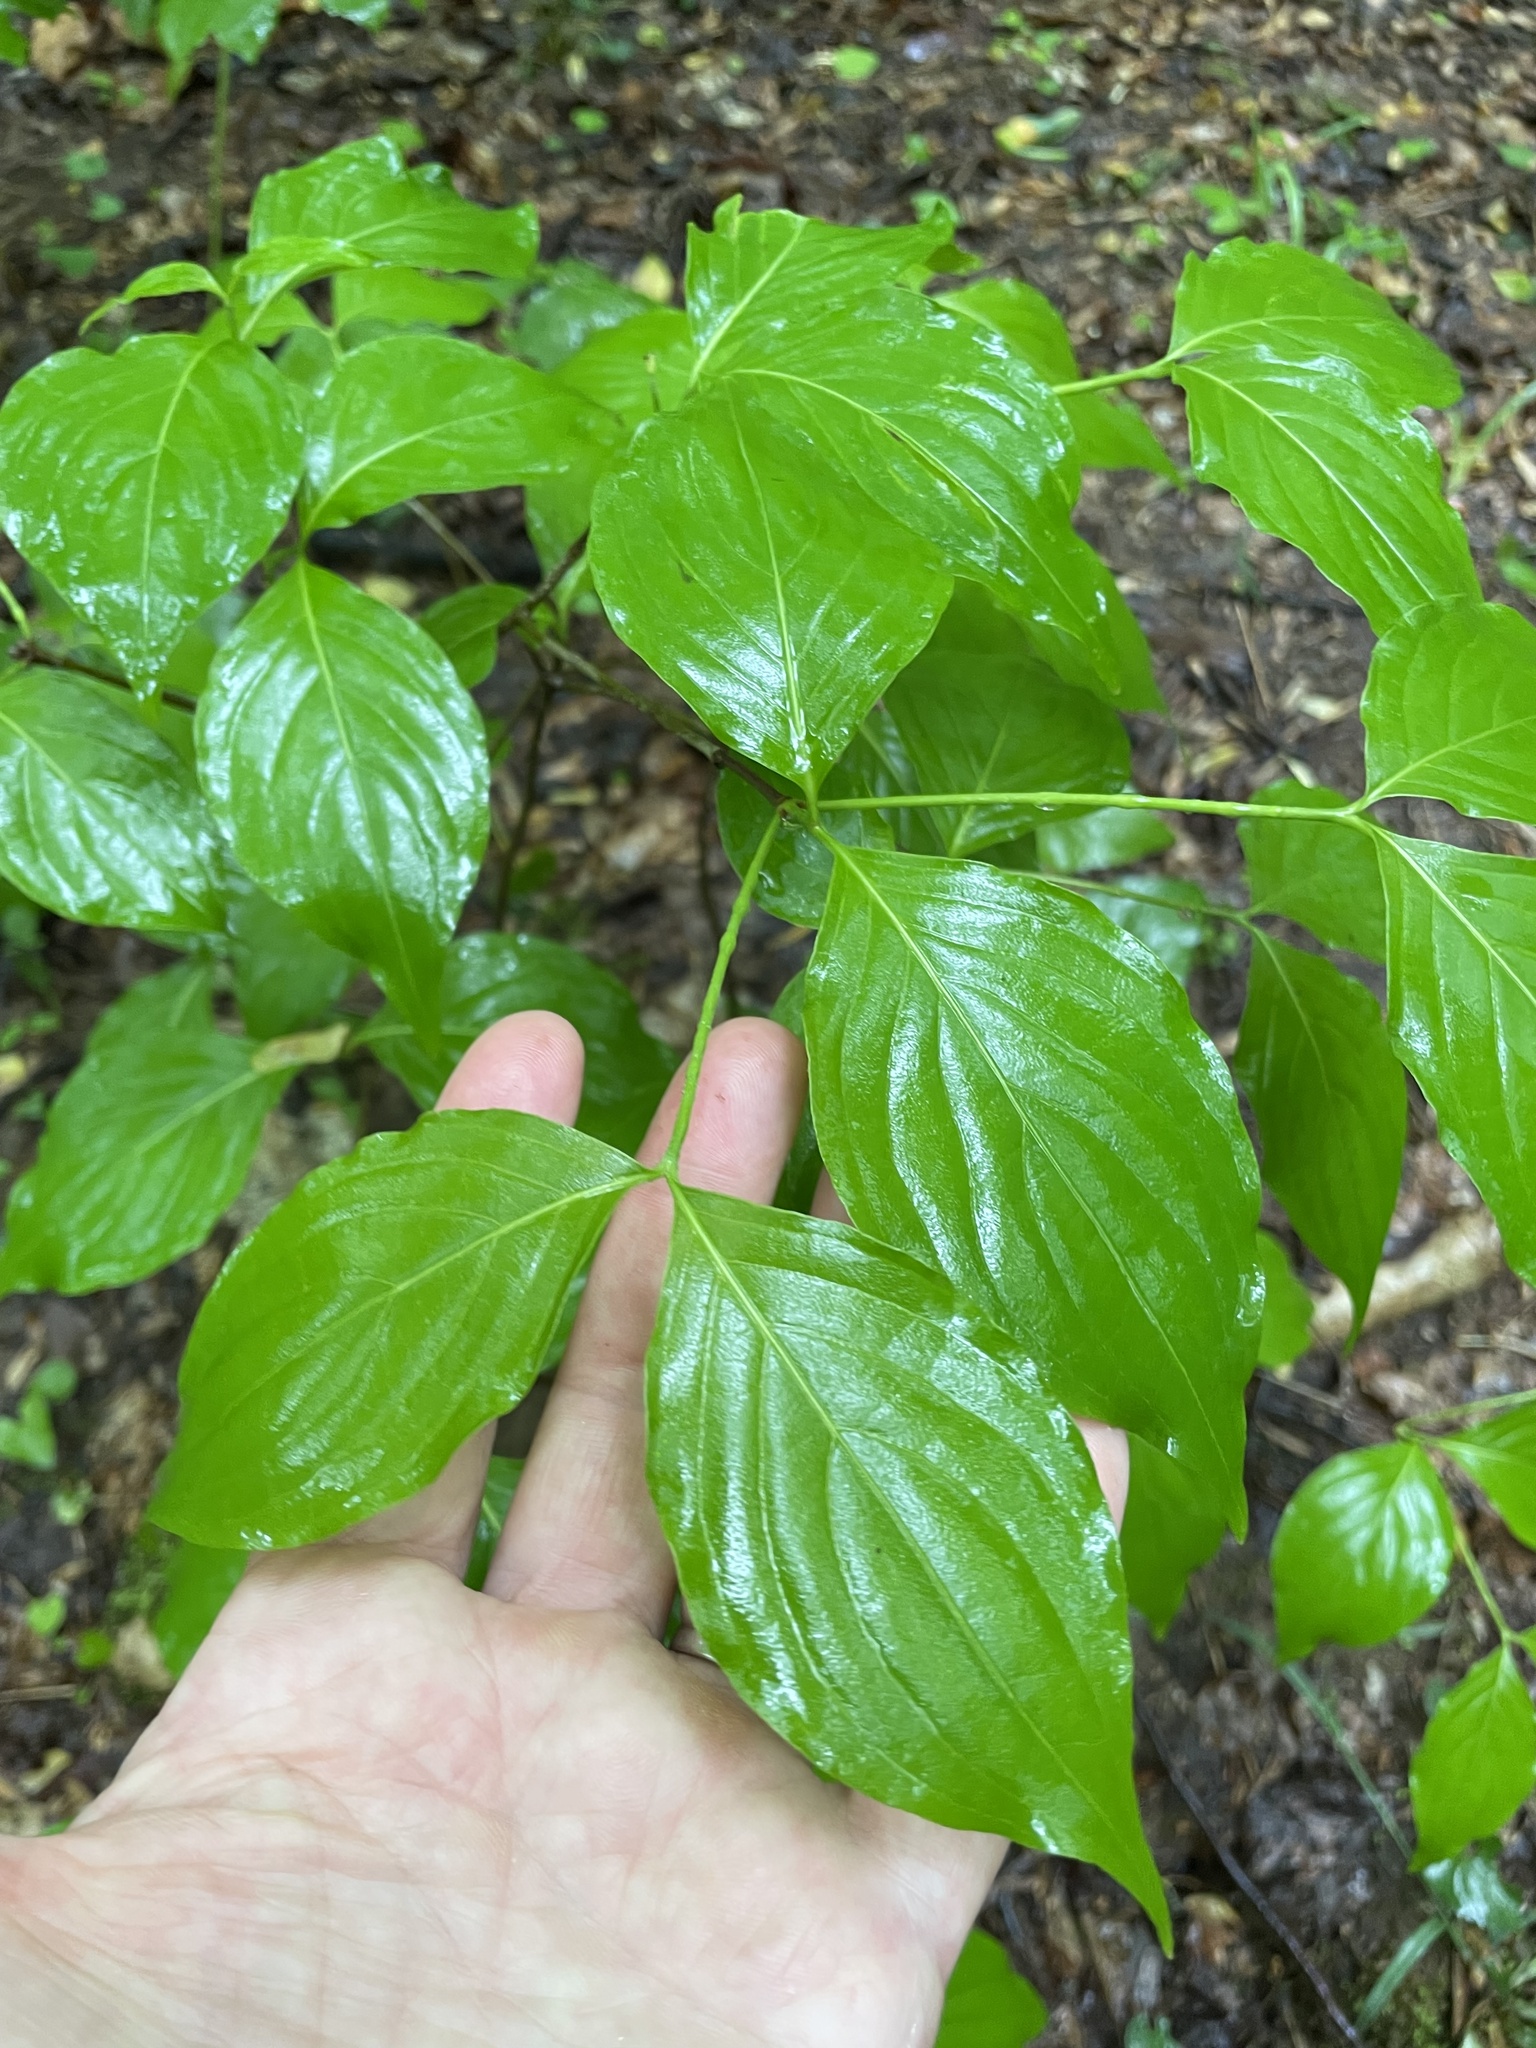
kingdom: Plantae
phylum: Tracheophyta
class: Magnoliopsida
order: Cornales
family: Cornaceae
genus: Cornus
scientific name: Cornus florida
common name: Flowering dogwood
